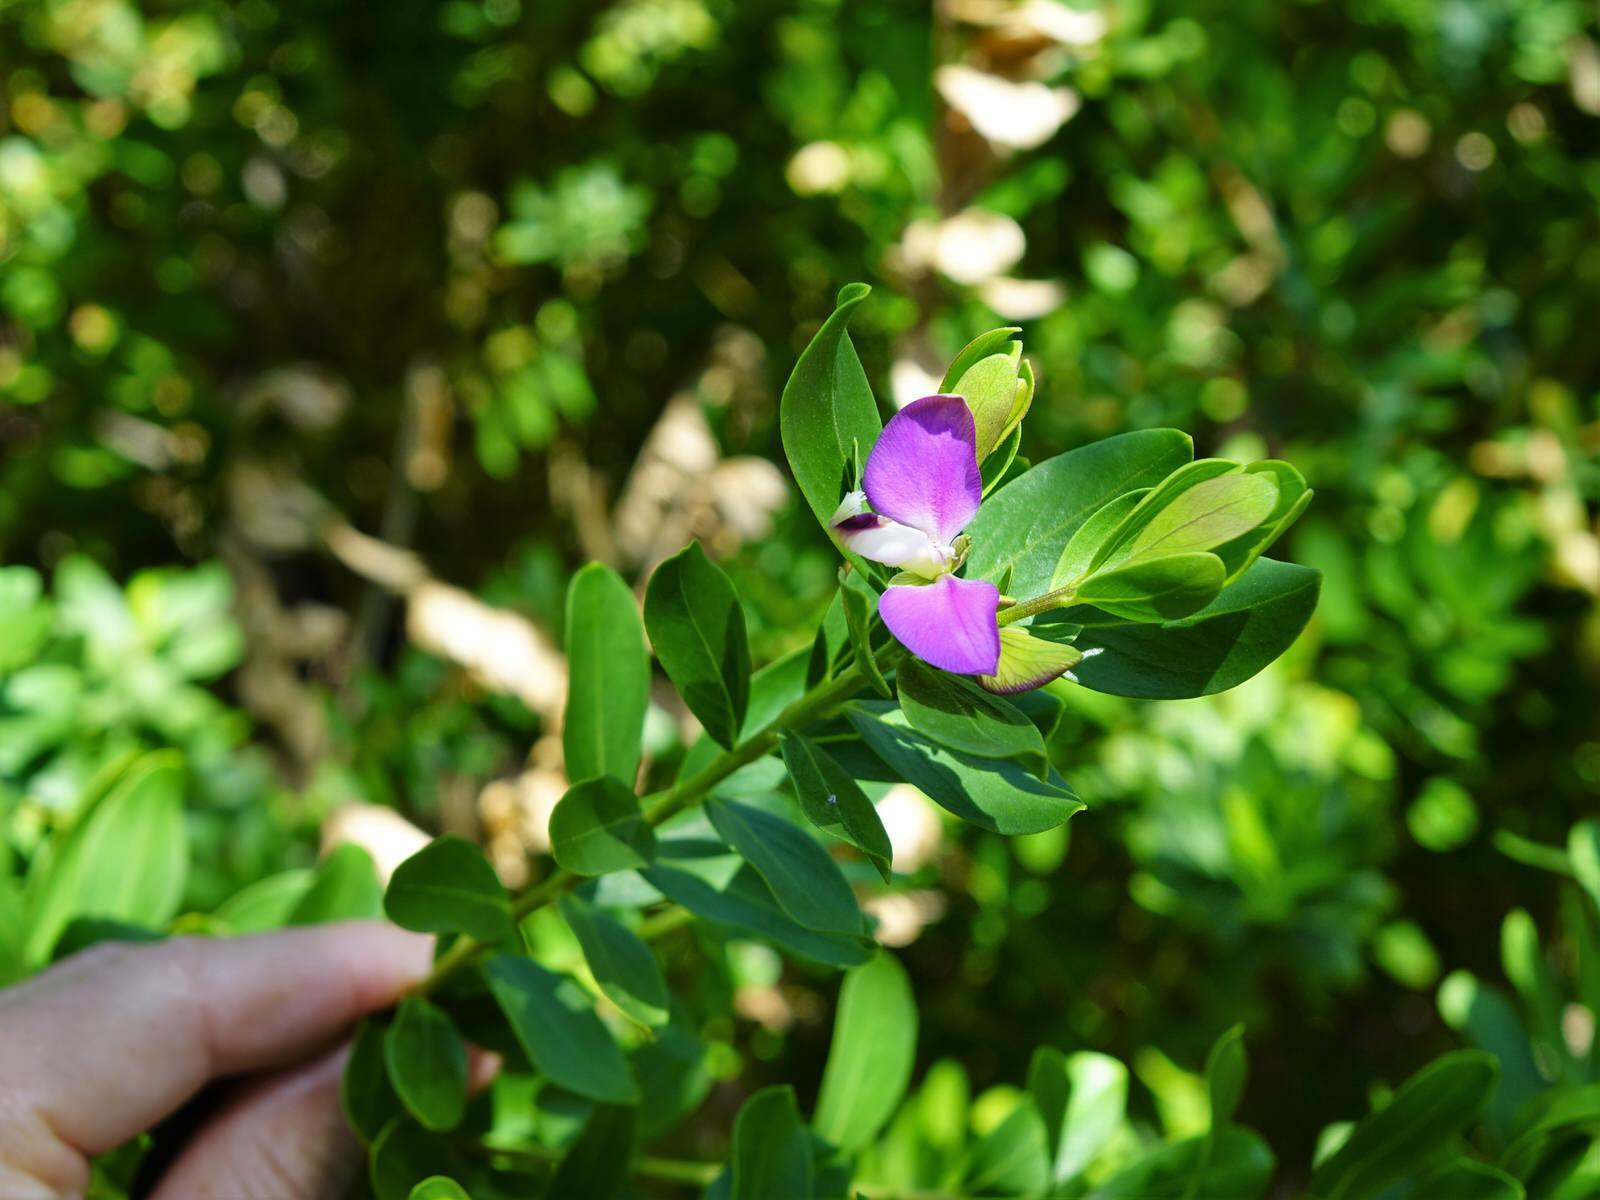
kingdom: Plantae
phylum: Tracheophyta
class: Magnoliopsida
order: Fabales
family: Polygalaceae
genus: Polygala
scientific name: Polygala myrtifolia
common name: Myrtle-leaf milkwort
